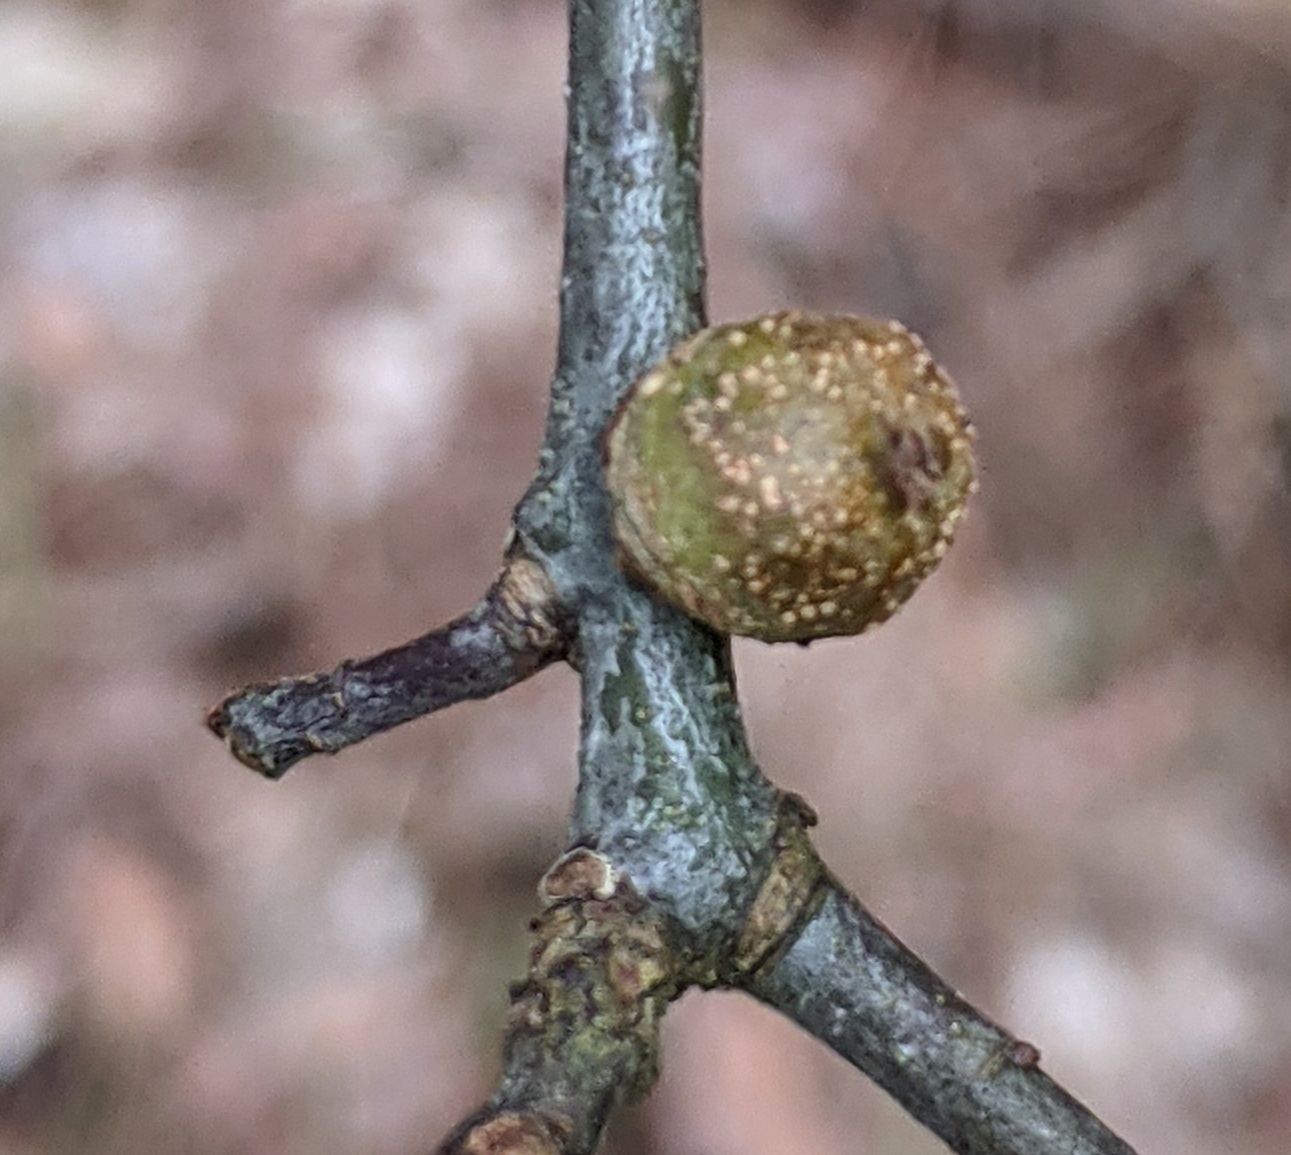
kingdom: Animalia
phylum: Arthropoda
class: Insecta
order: Hymenoptera
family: Cynipidae
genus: Callirhytis
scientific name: Callirhytis
